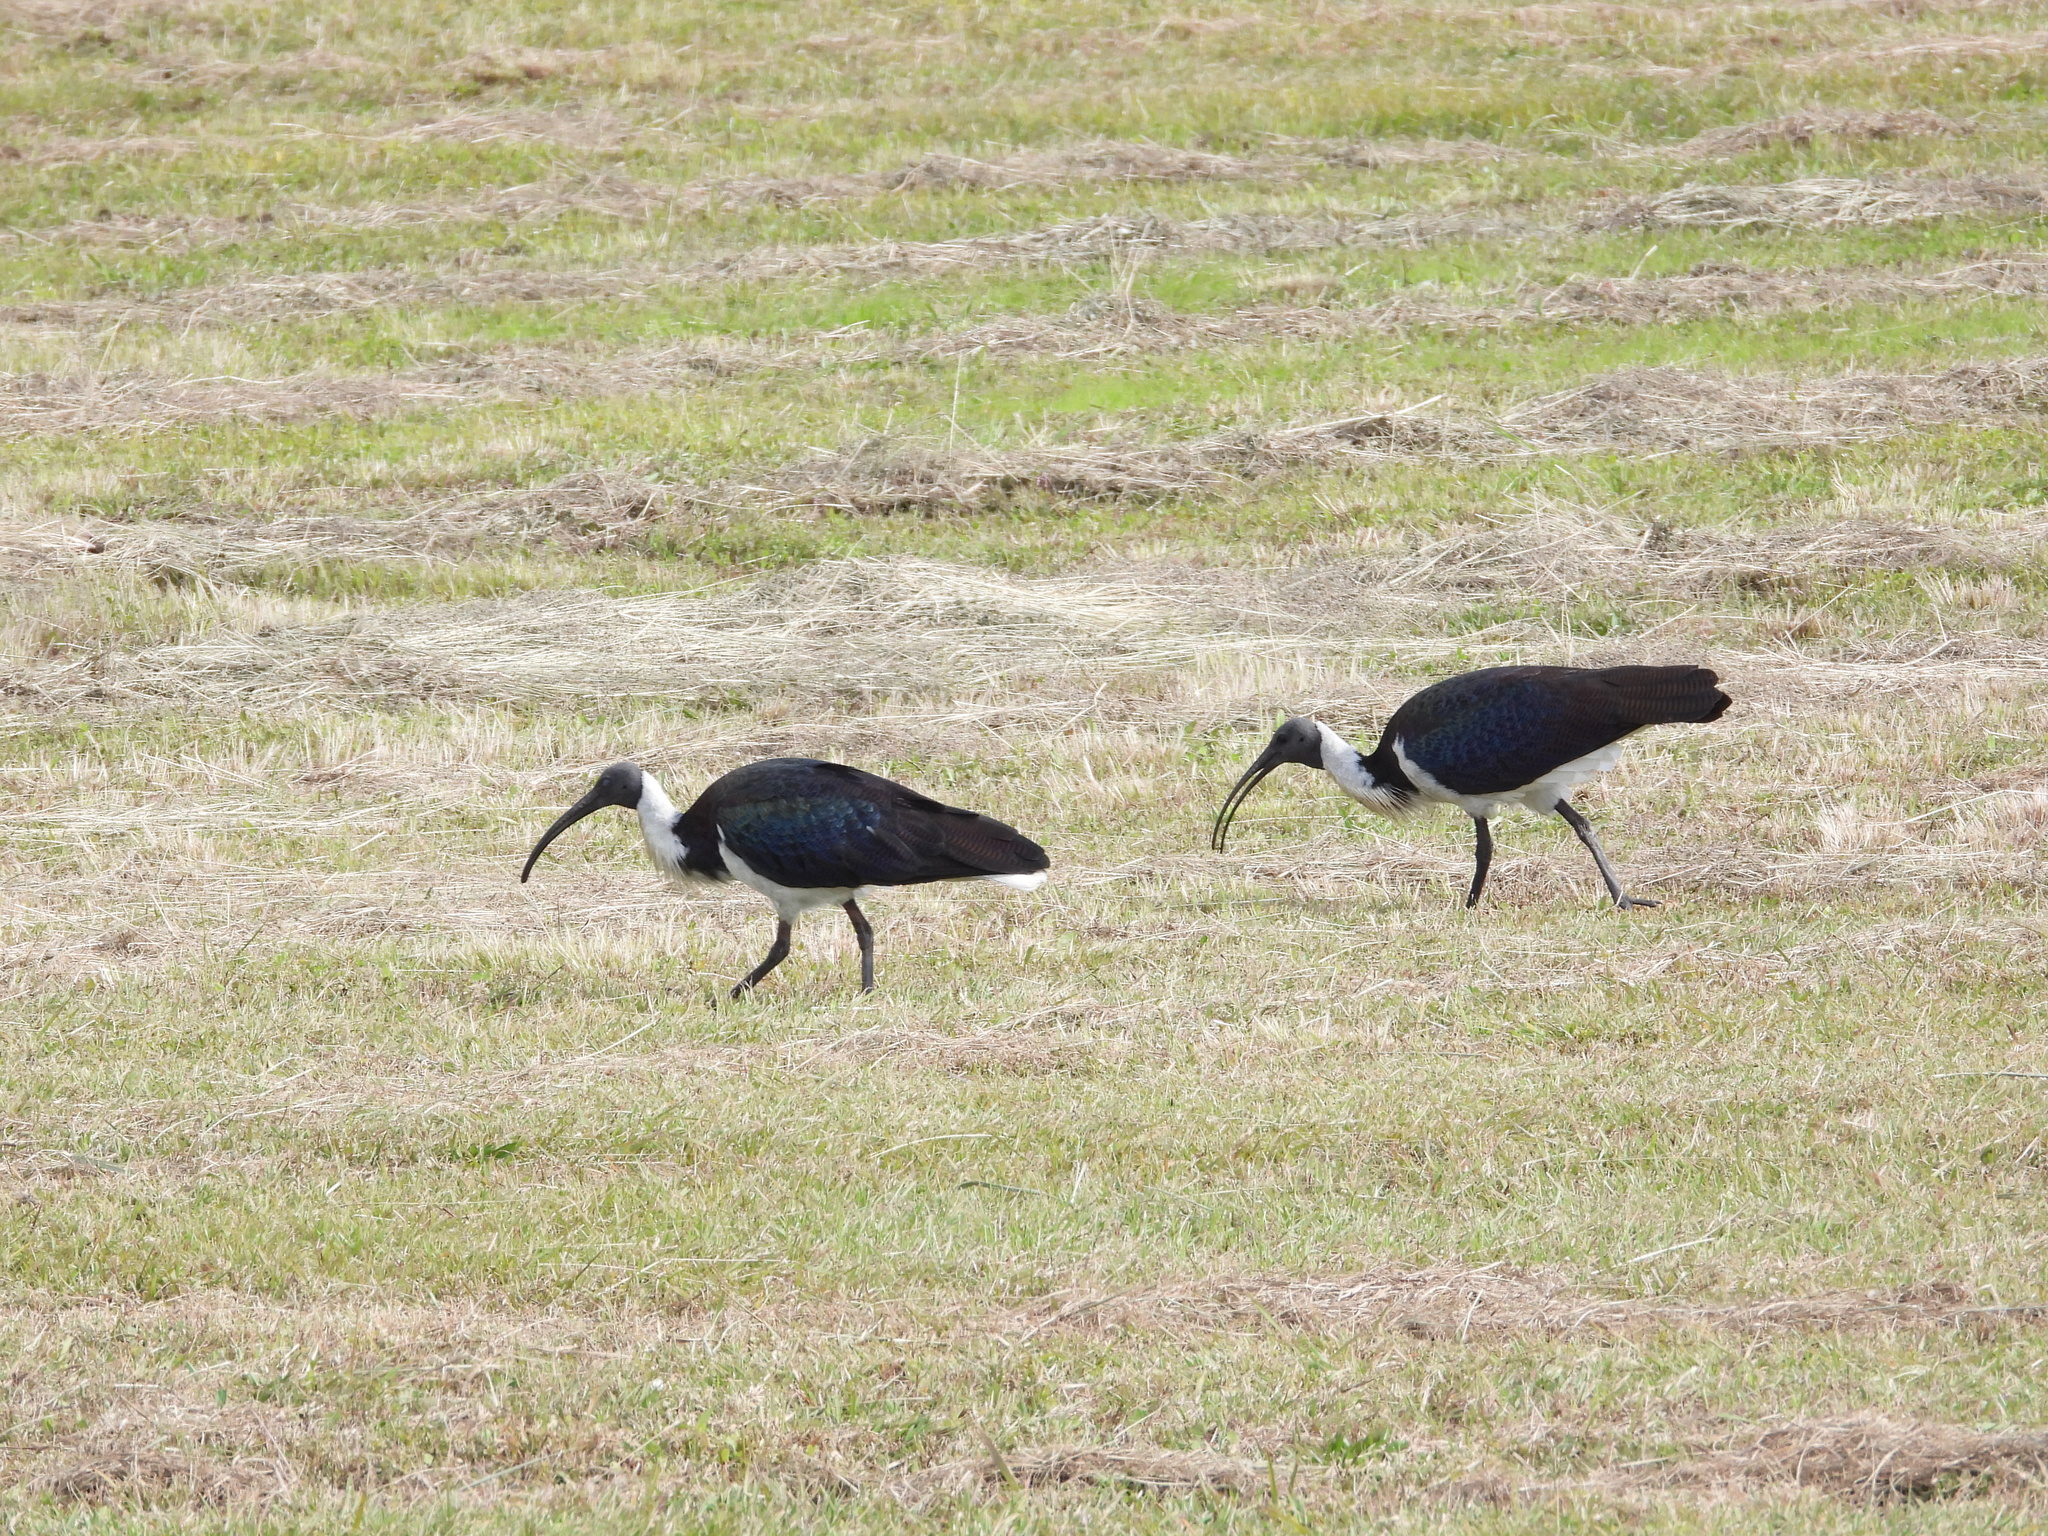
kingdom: Animalia
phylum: Chordata
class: Aves
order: Pelecaniformes
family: Threskiornithidae
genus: Threskiornis
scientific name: Threskiornis spinicollis
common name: Straw-necked ibis
